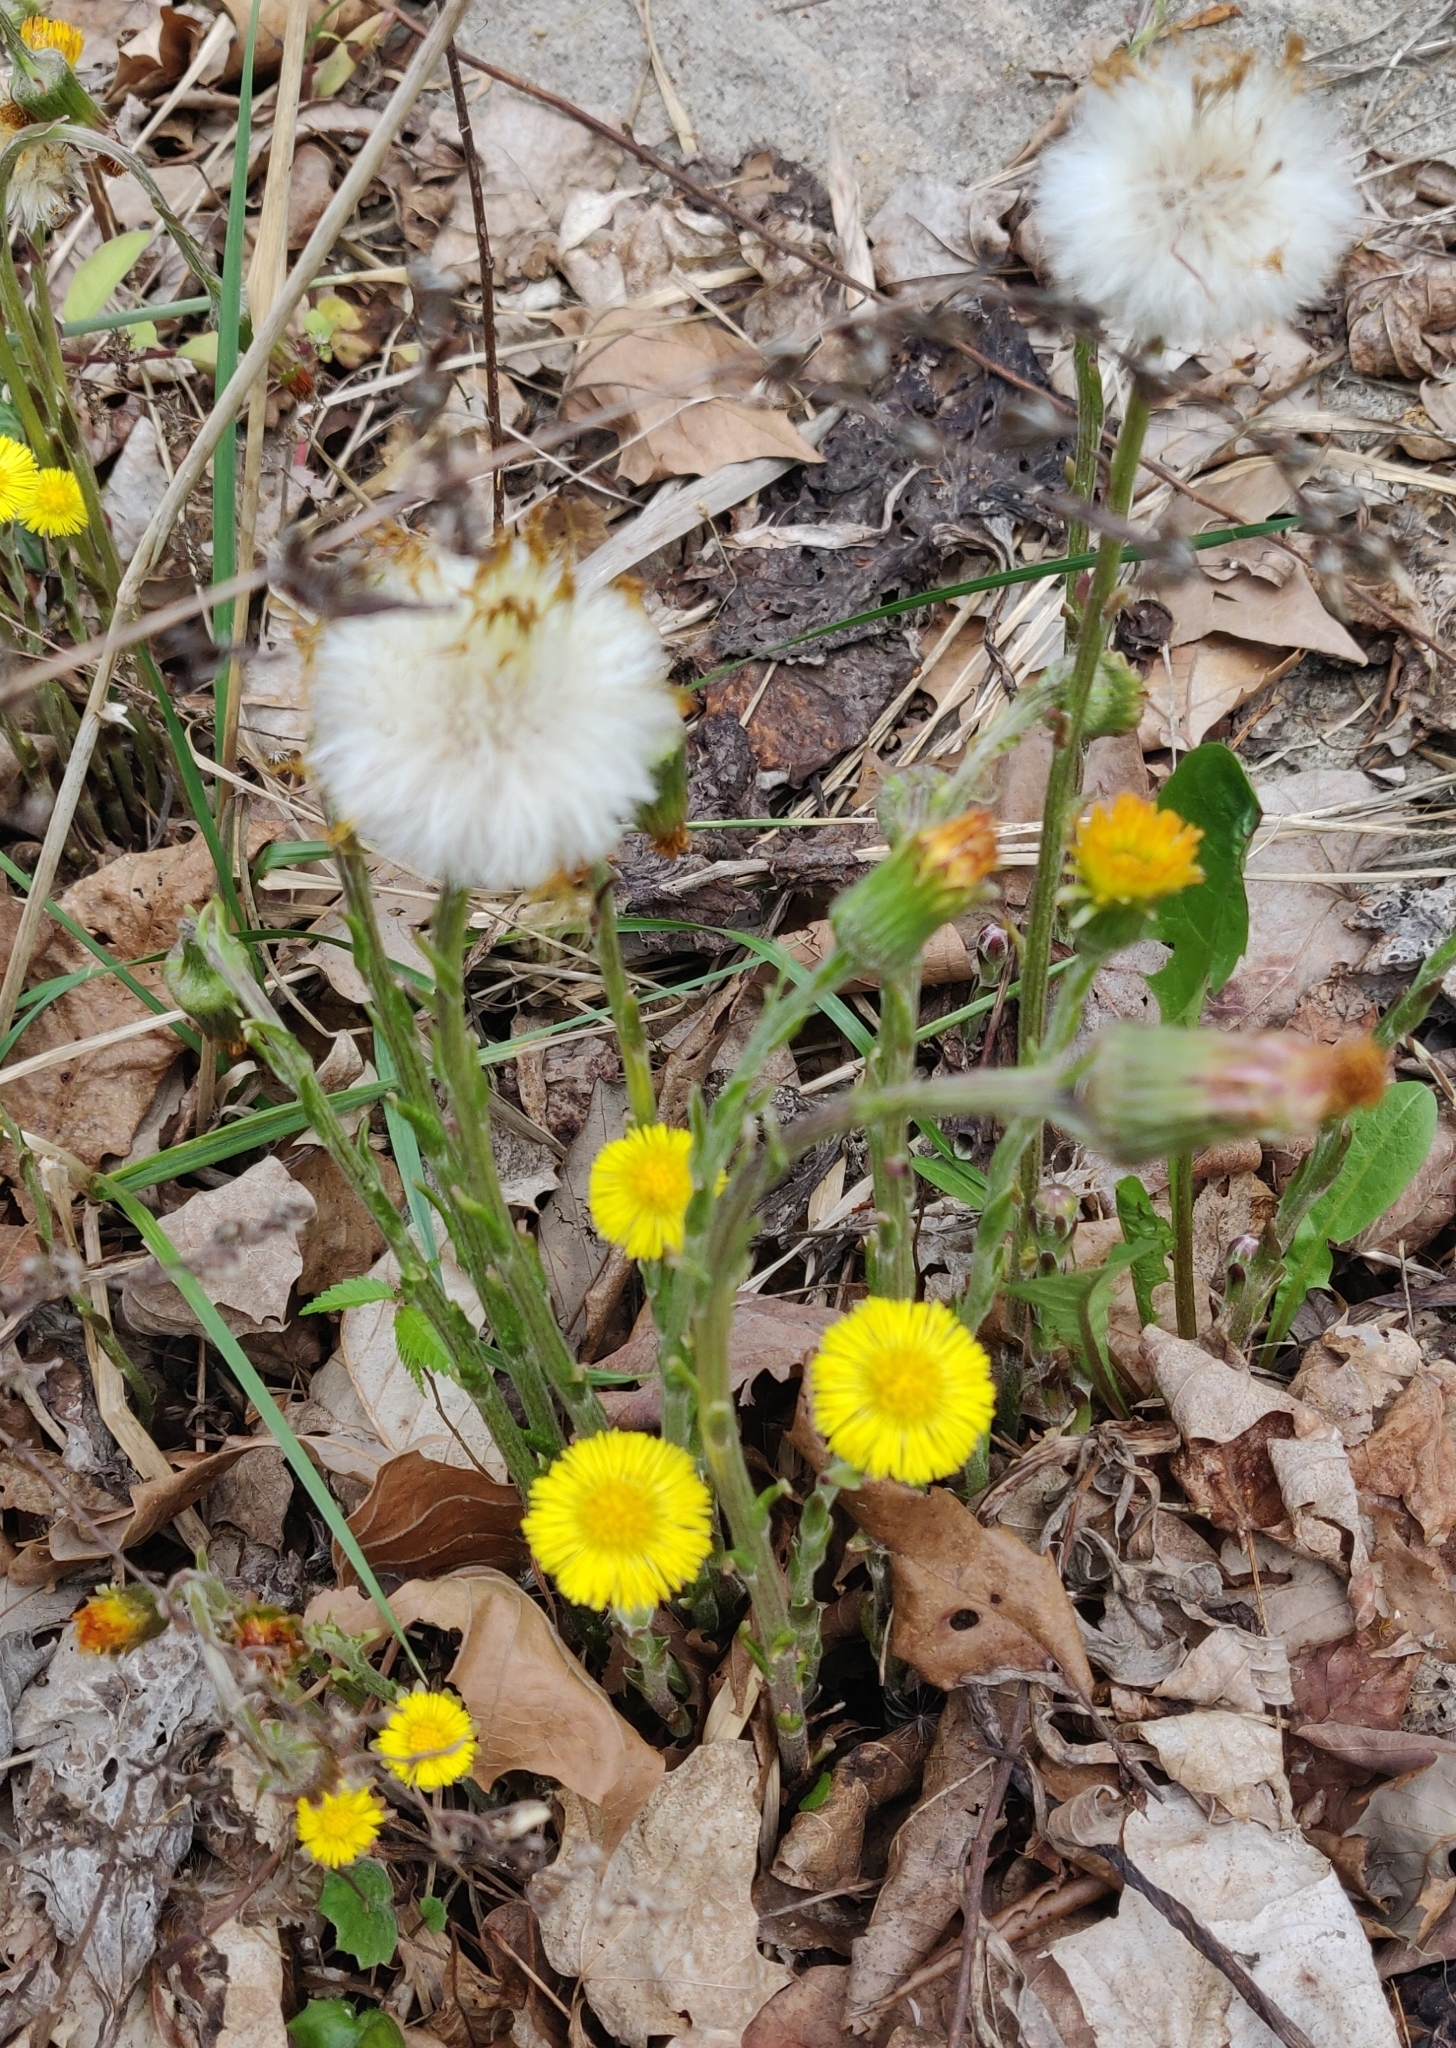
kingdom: Plantae
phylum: Tracheophyta
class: Magnoliopsida
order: Asterales
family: Asteraceae
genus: Tussilago
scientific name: Tussilago farfara
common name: Coltsfoot
